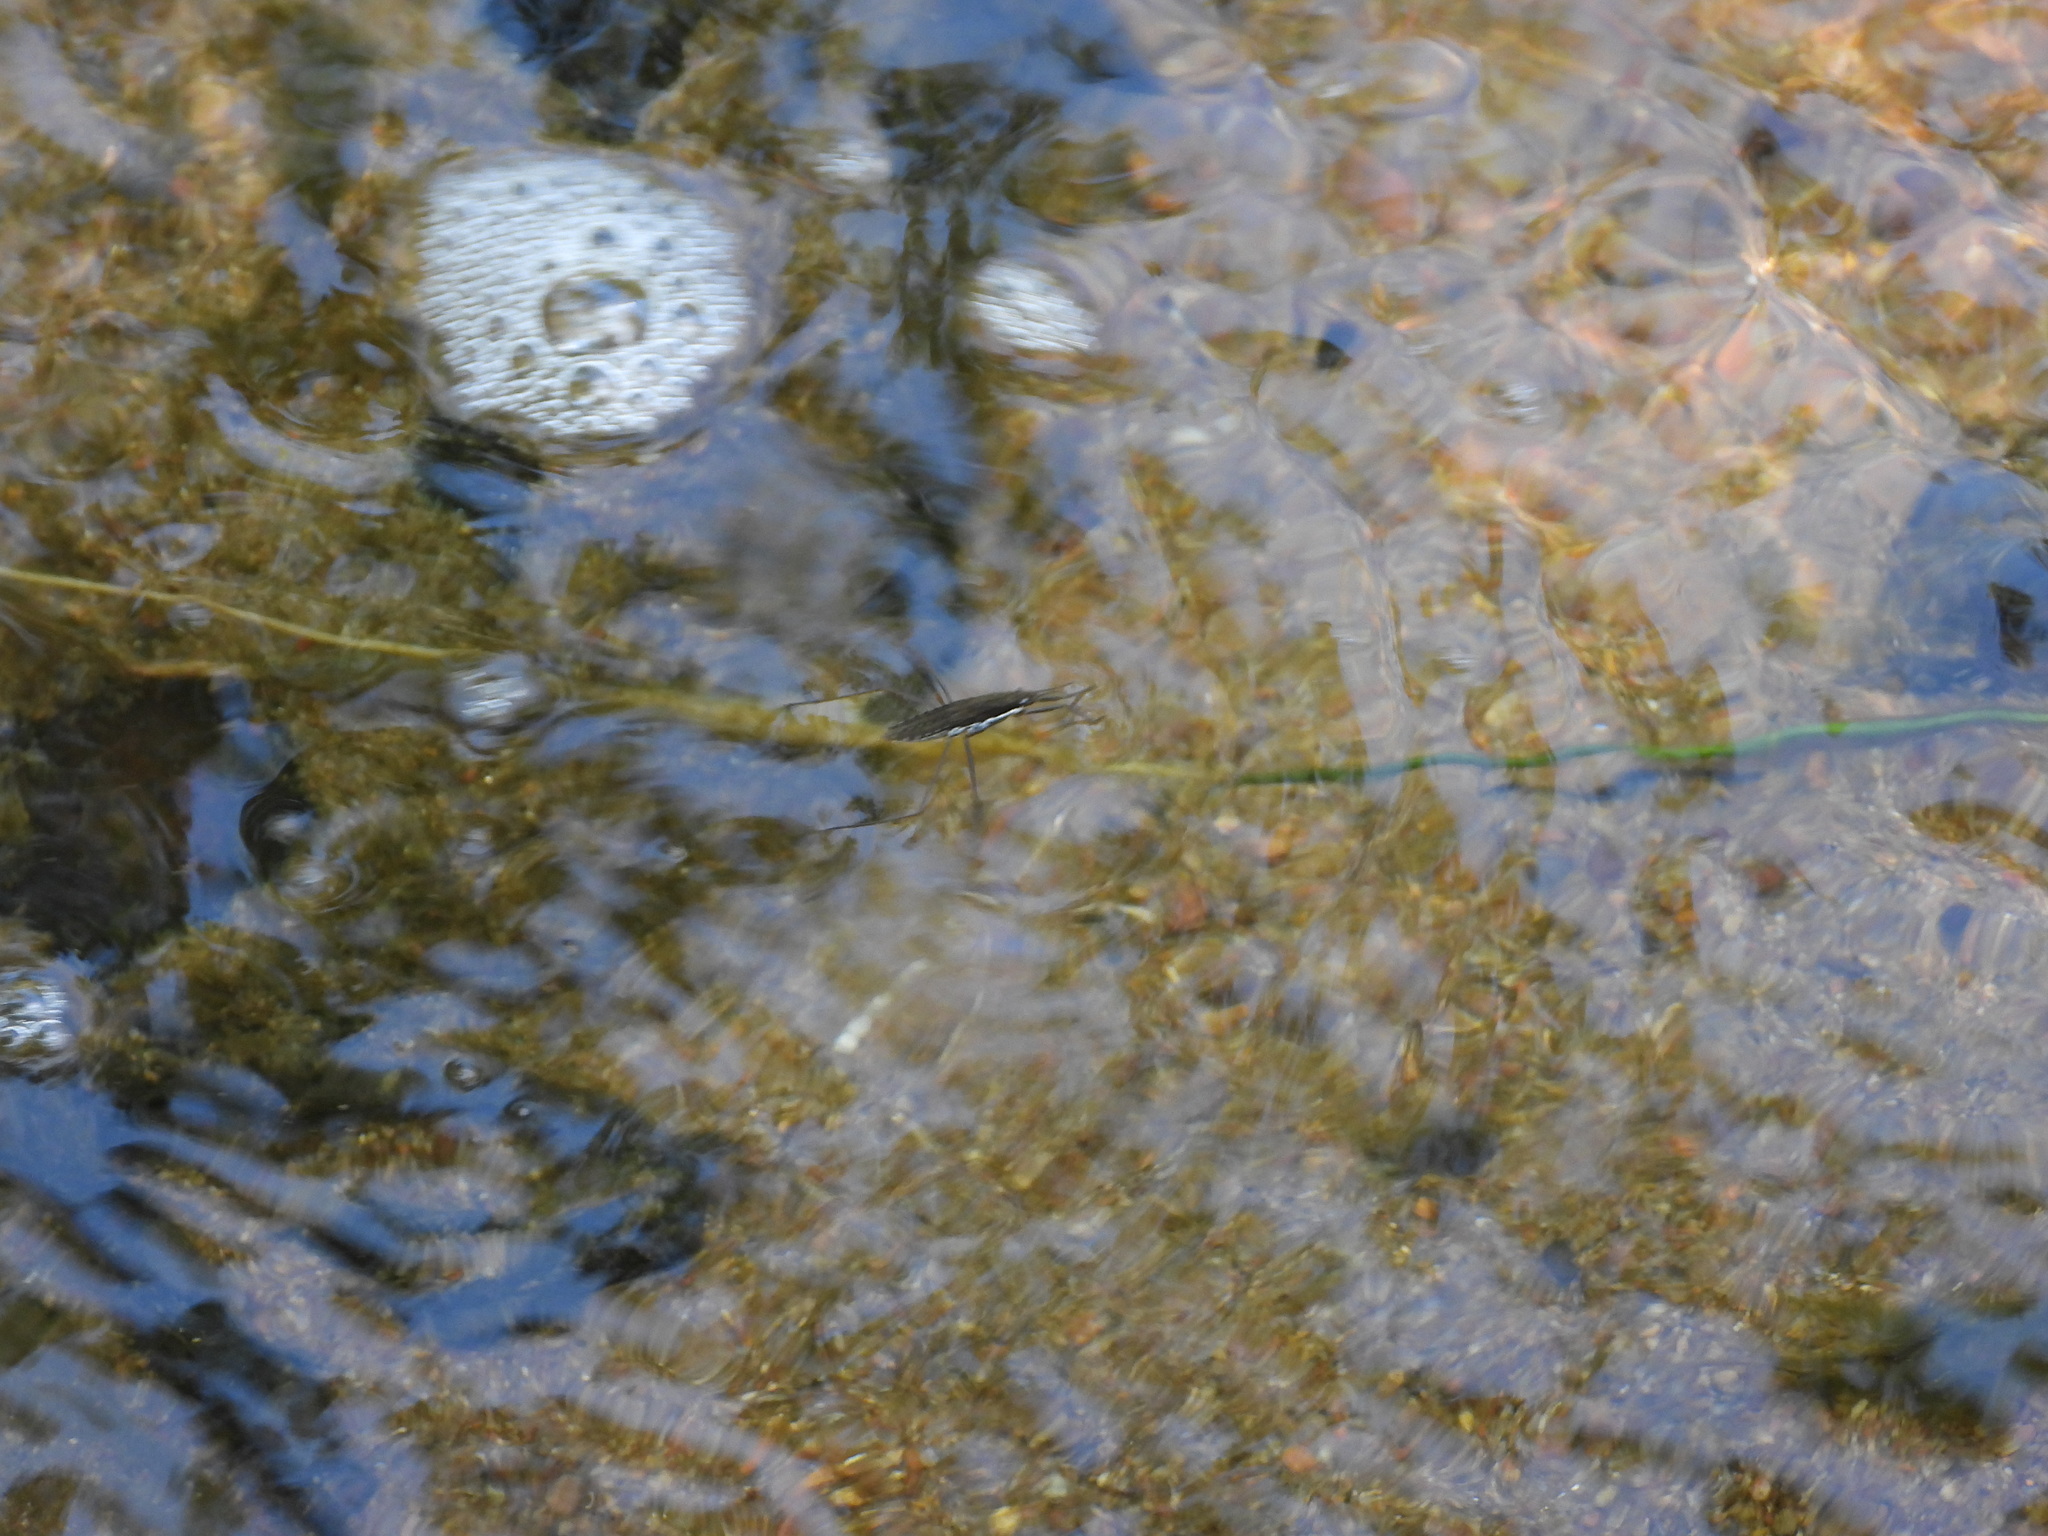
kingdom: Animalia
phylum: Arthropoda
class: Insecta
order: Hemiptera
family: Gerridae
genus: Aquarius
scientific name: Aquarius remigis
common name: Common water strider
